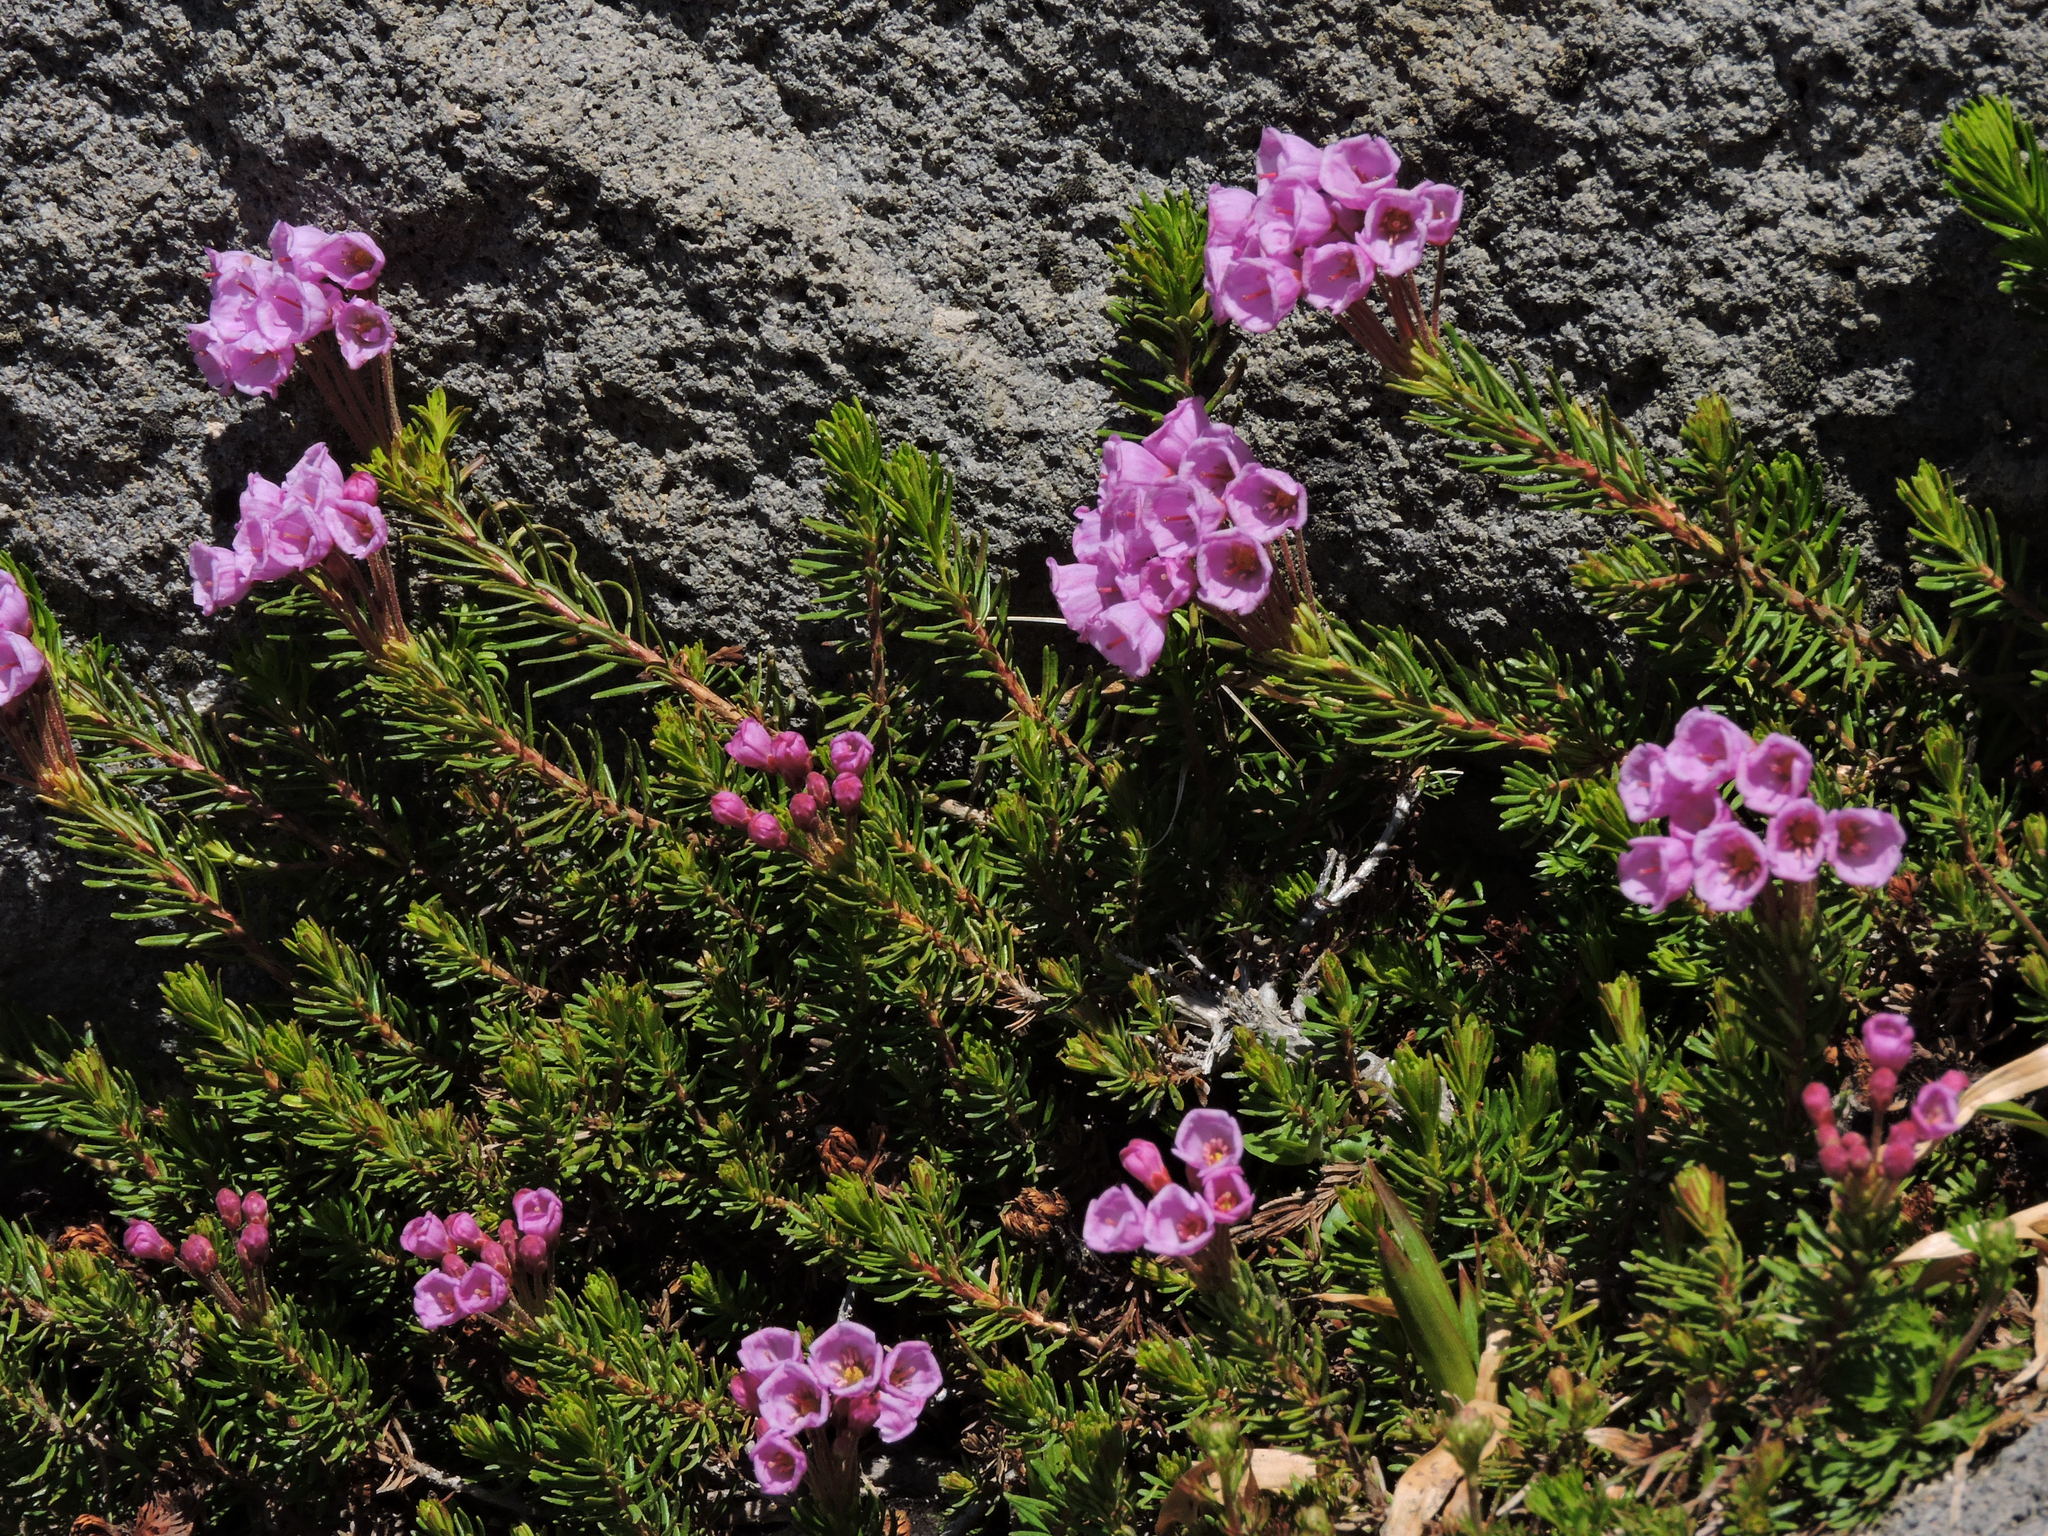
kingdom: Plantae
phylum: Tracheophyta
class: Magnoliopsida
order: Ericales
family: Ericaceae
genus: Phyllodoce
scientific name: Phyllodoce empetriformis
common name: Pink mountain heather
